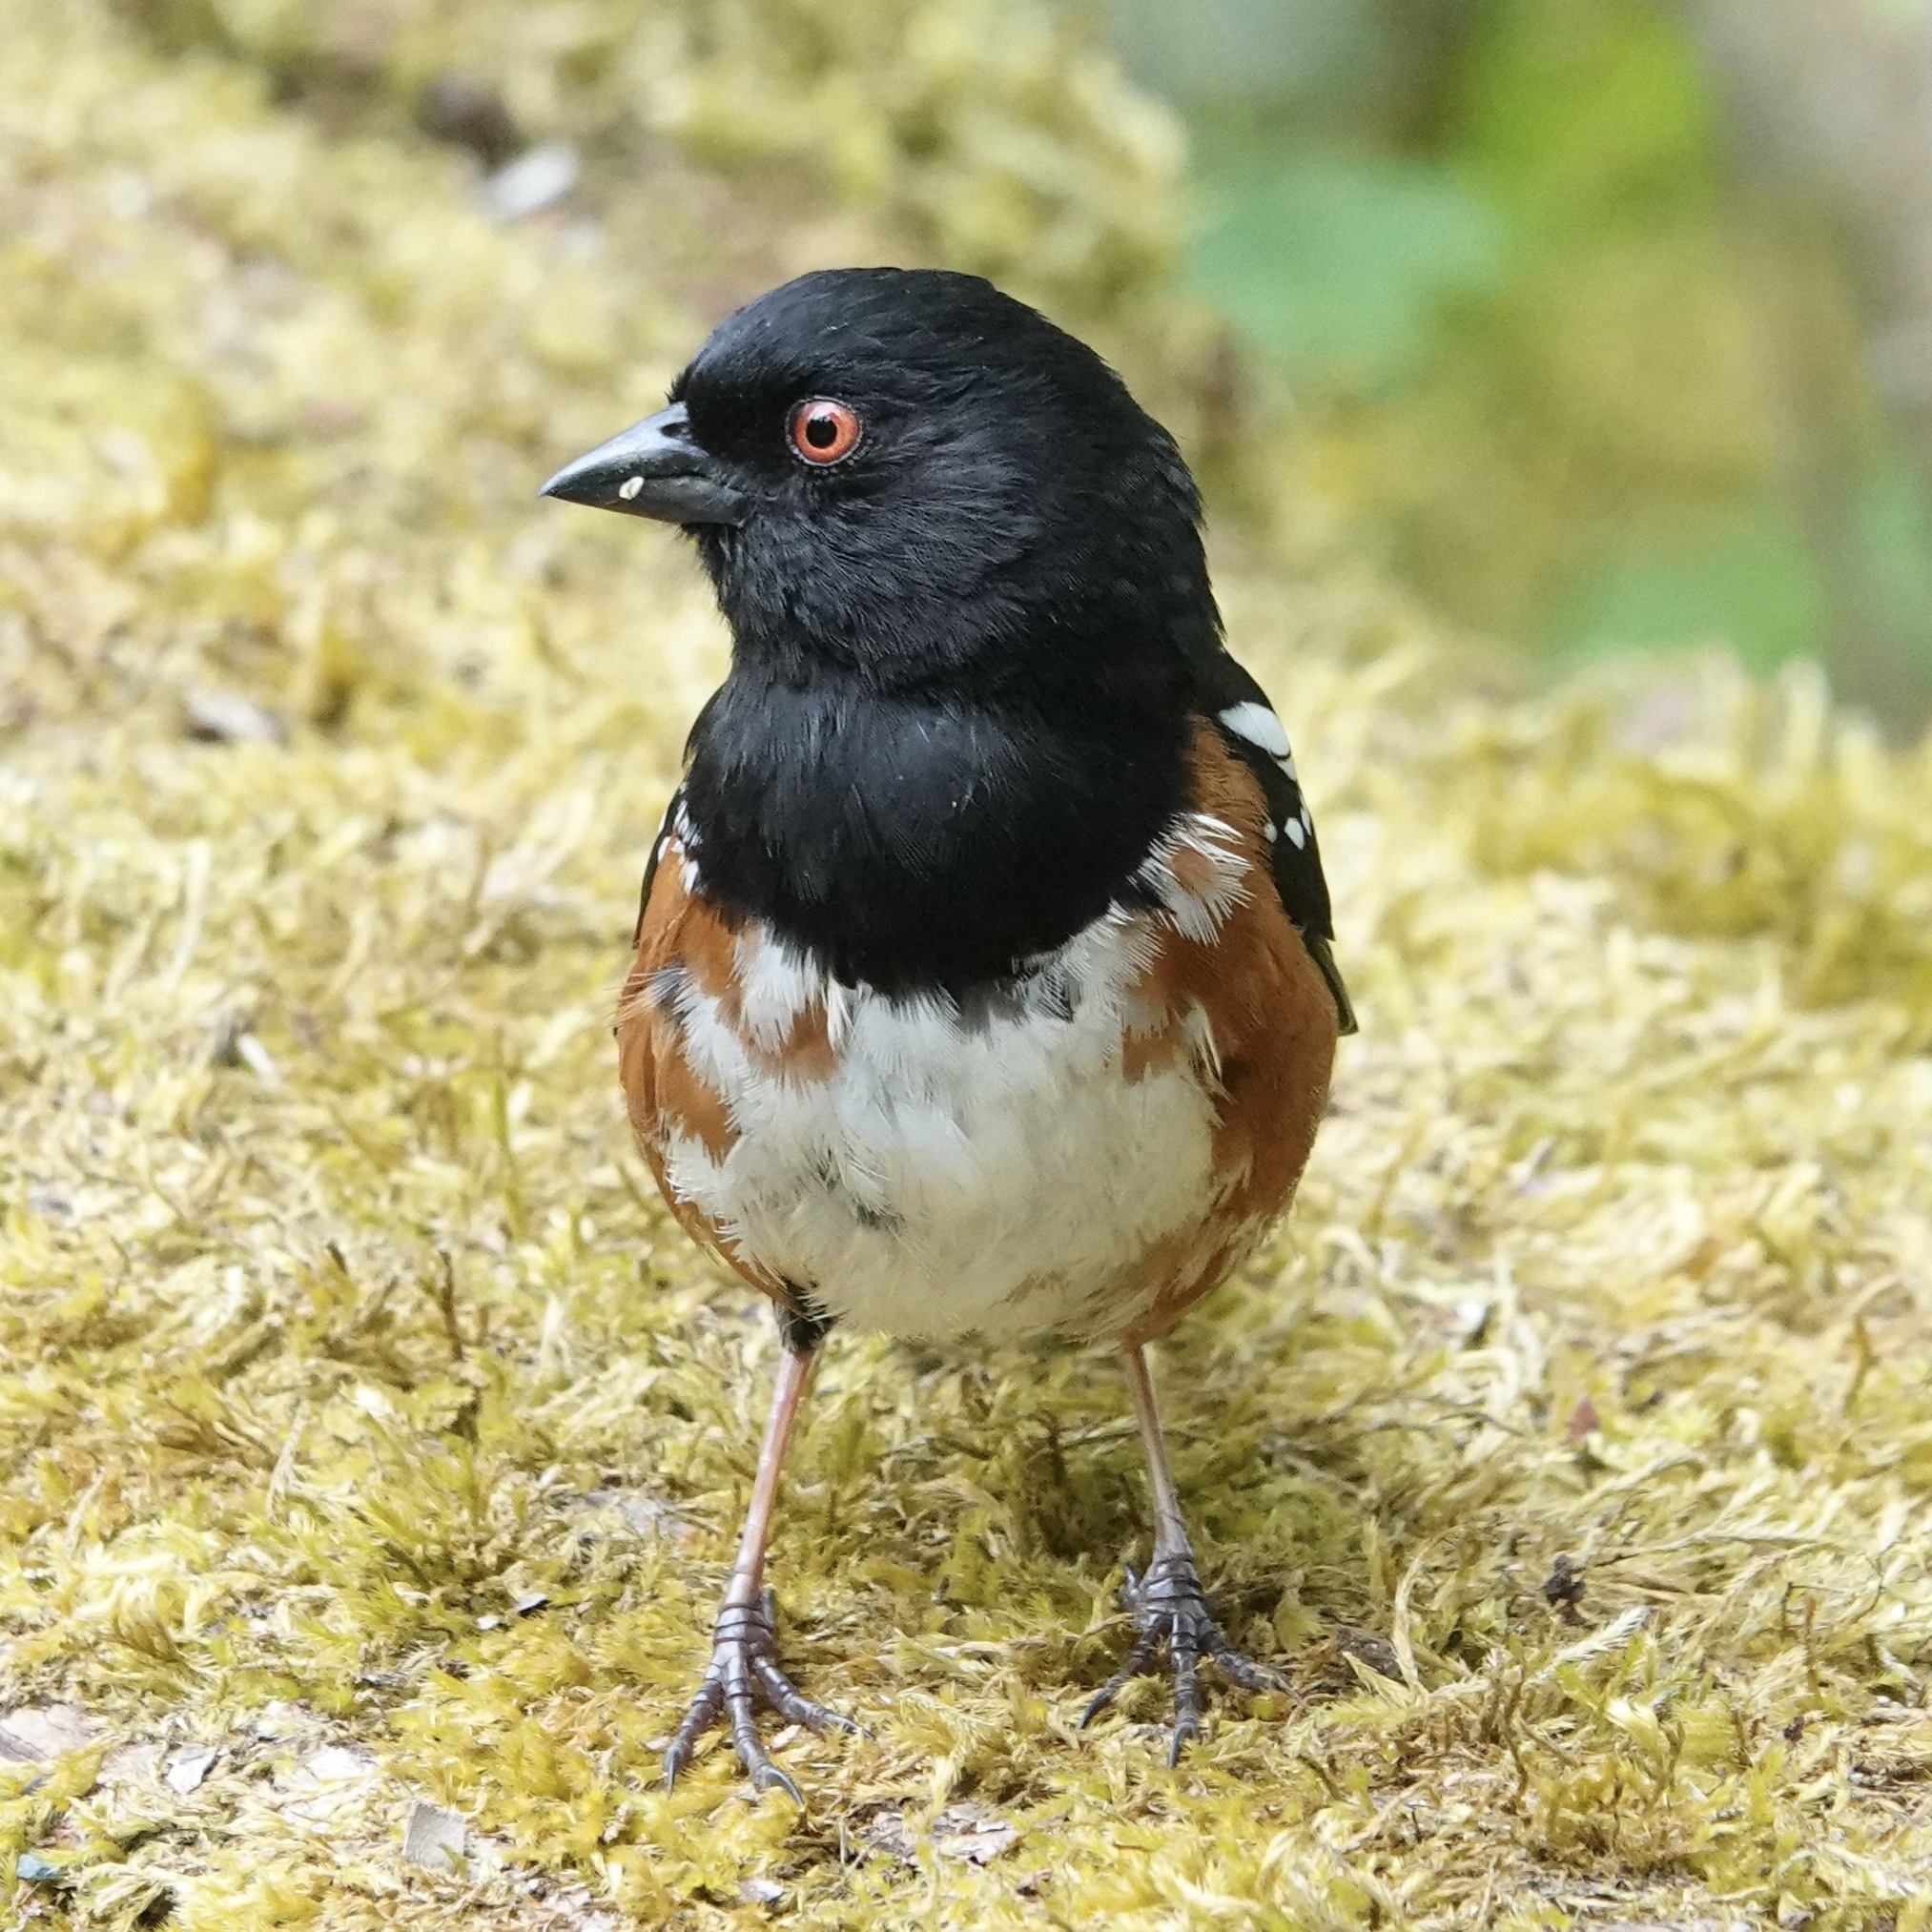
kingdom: Animalia
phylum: Chordata
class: Aves
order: Passeriformes
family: Passerellidae
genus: Pipilo
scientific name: Pipilo maculatus
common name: Spotted towhee
